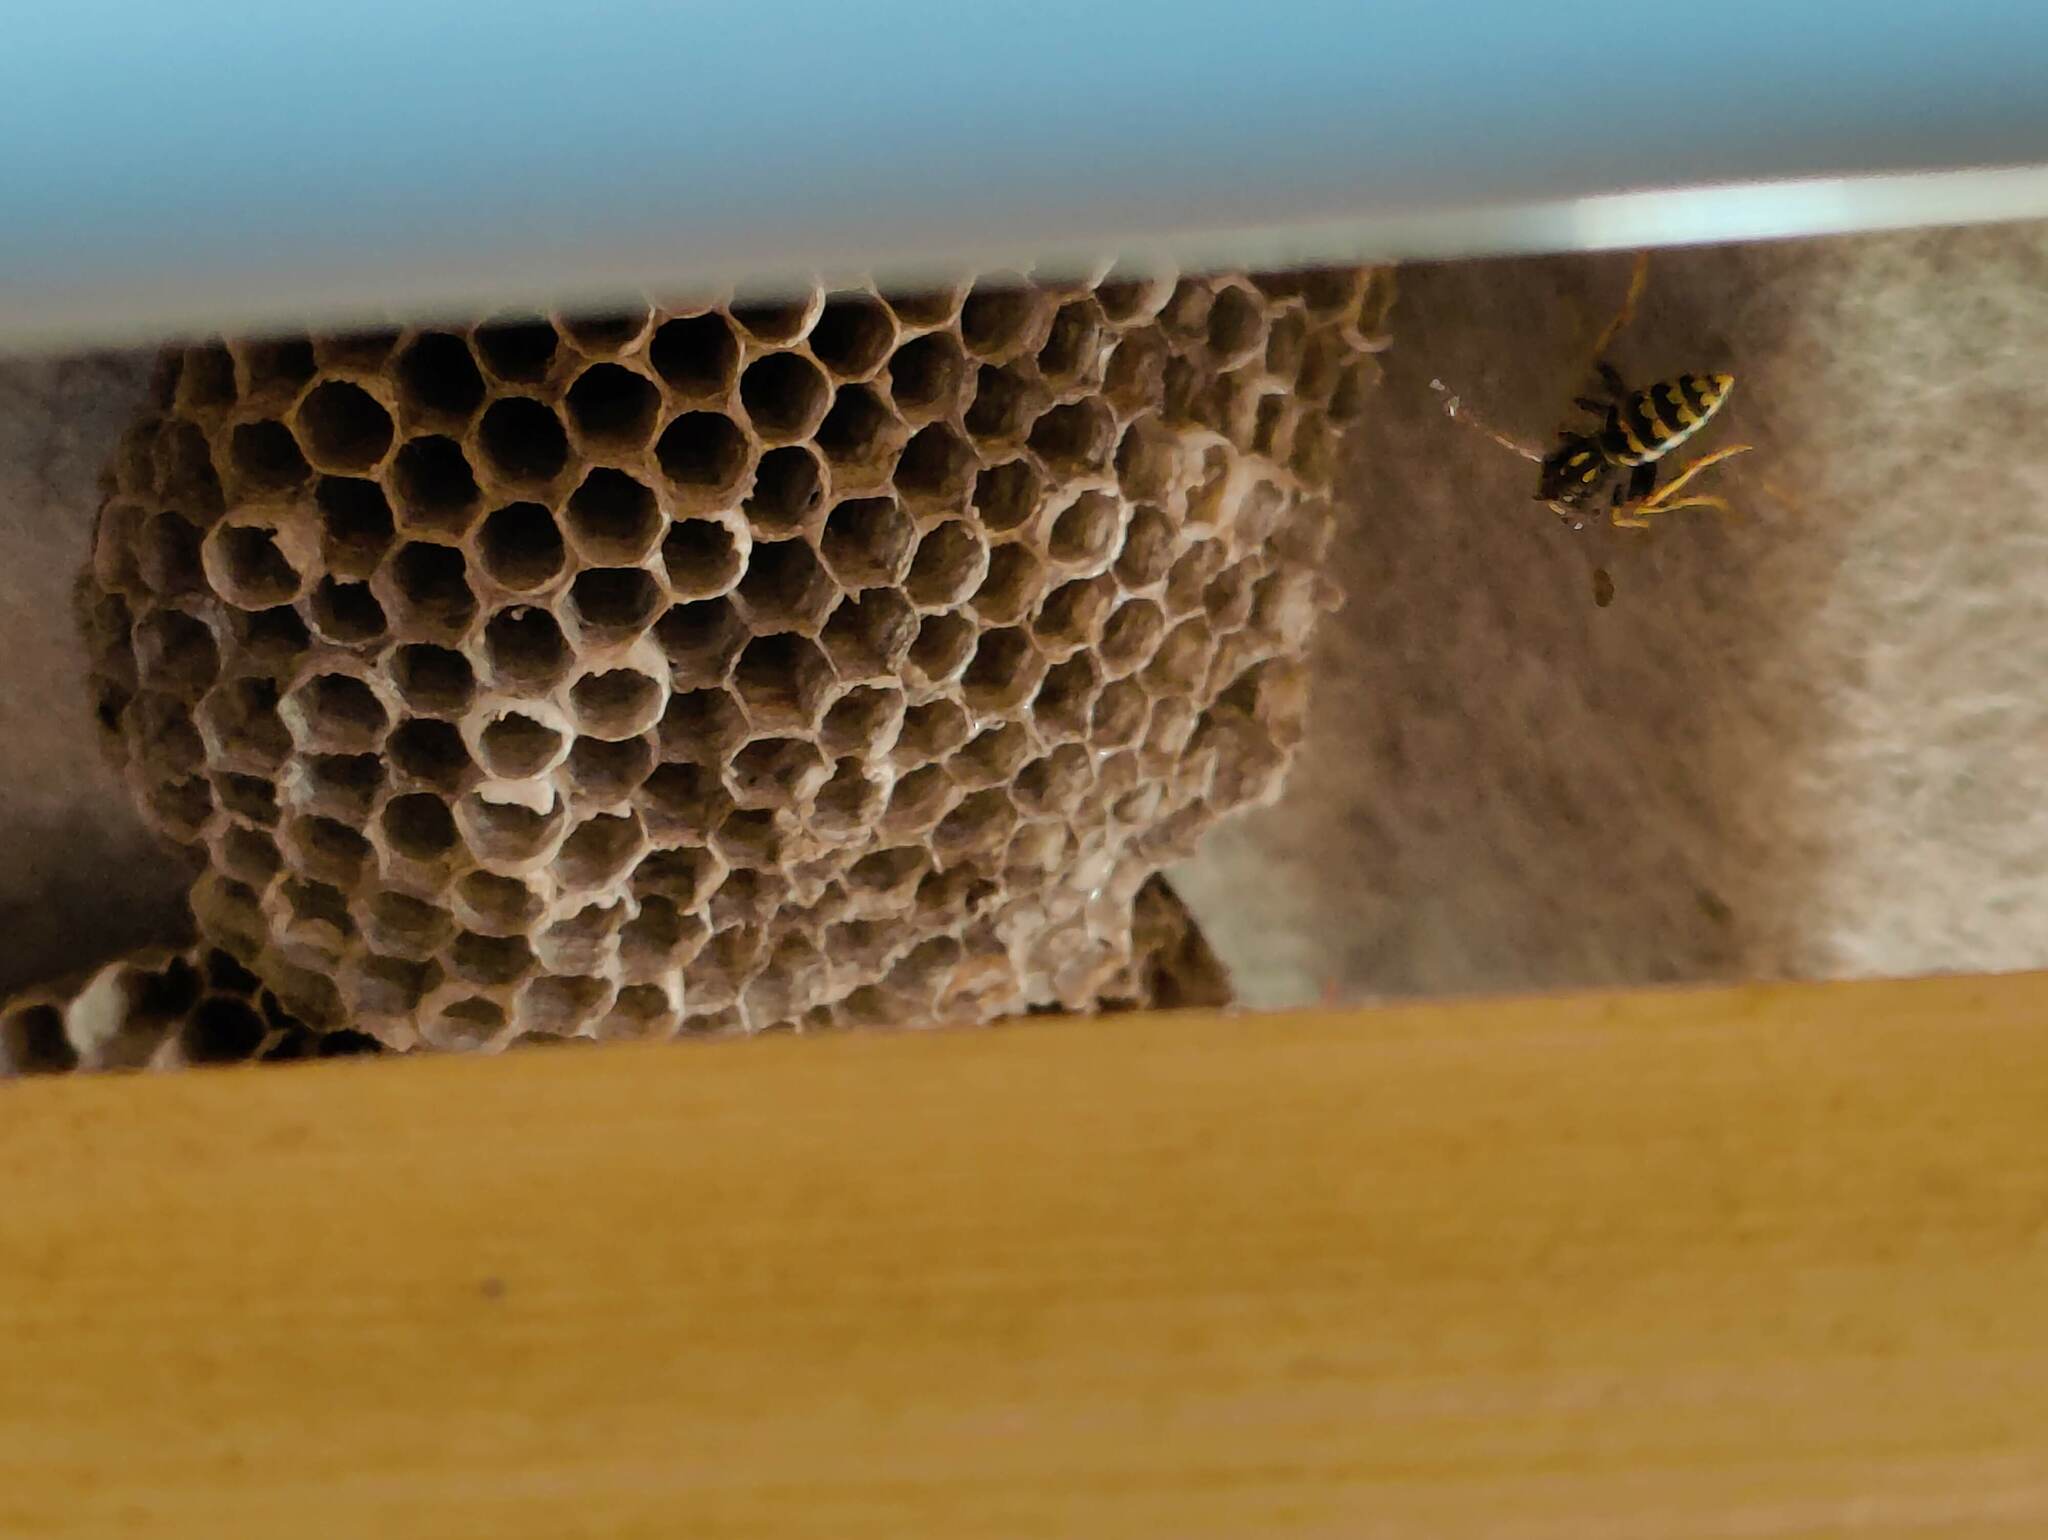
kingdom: Animalia
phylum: Arthropoda
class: Insecta
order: Hymenoptera
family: Eumenidae
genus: Polistes
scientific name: Polistes dominula
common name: Paper wasp
